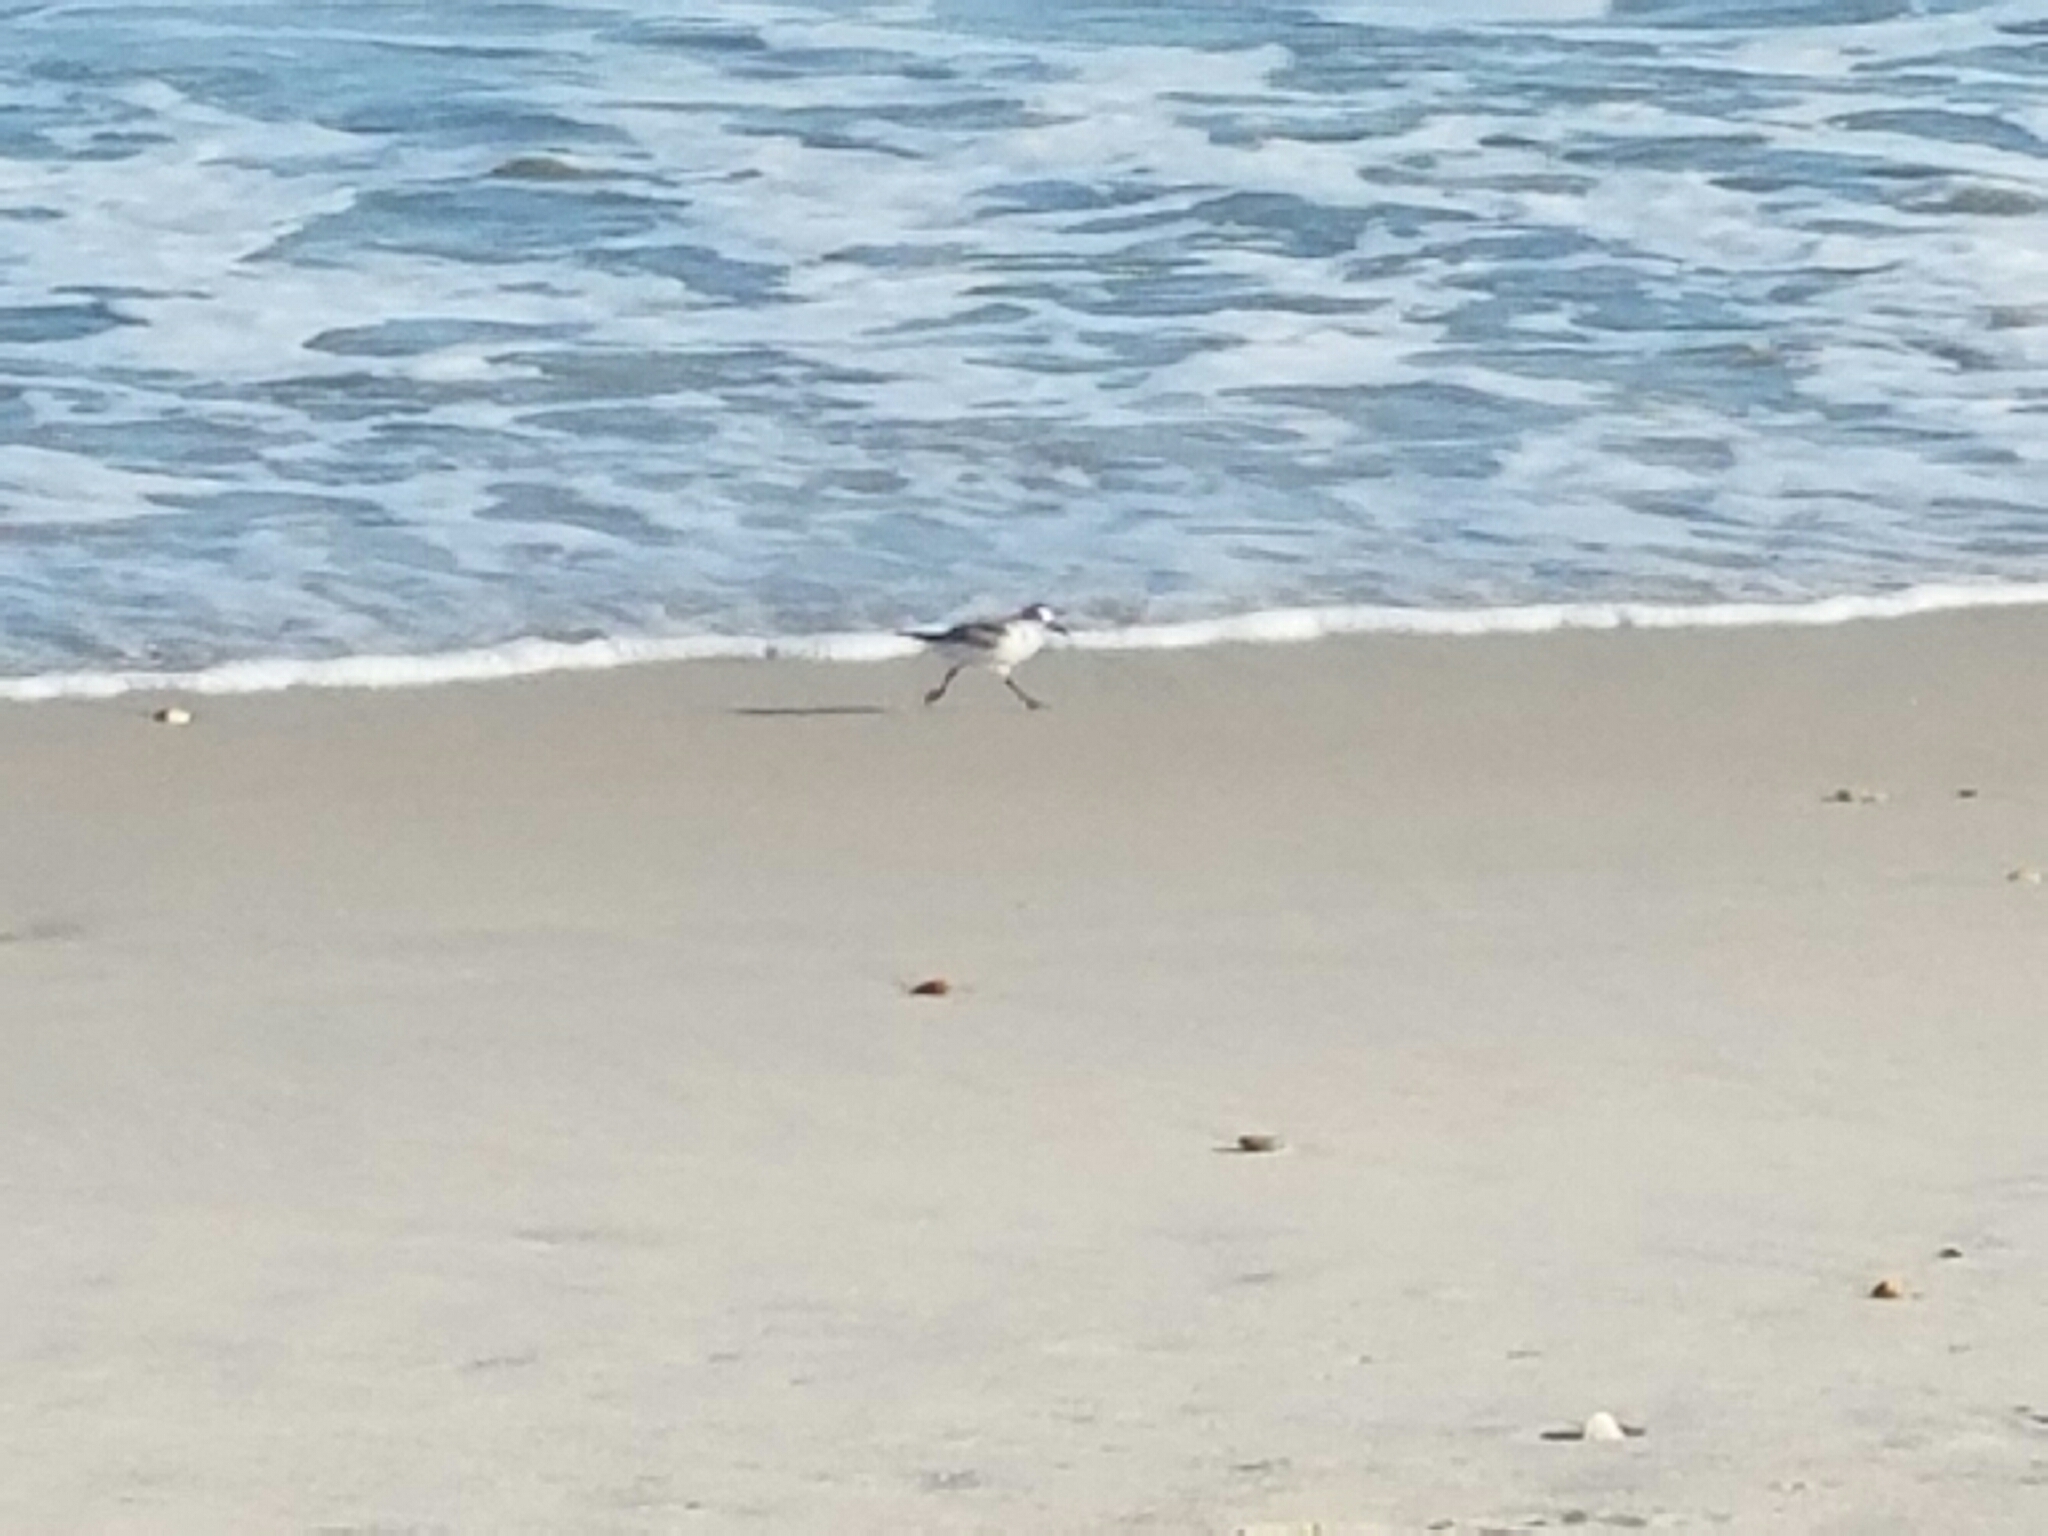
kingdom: Animalia
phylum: Chordata
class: Aves
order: Charadriiformes
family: Scolopacidae
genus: Calidris
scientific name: Calidris alba
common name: Sanderling
